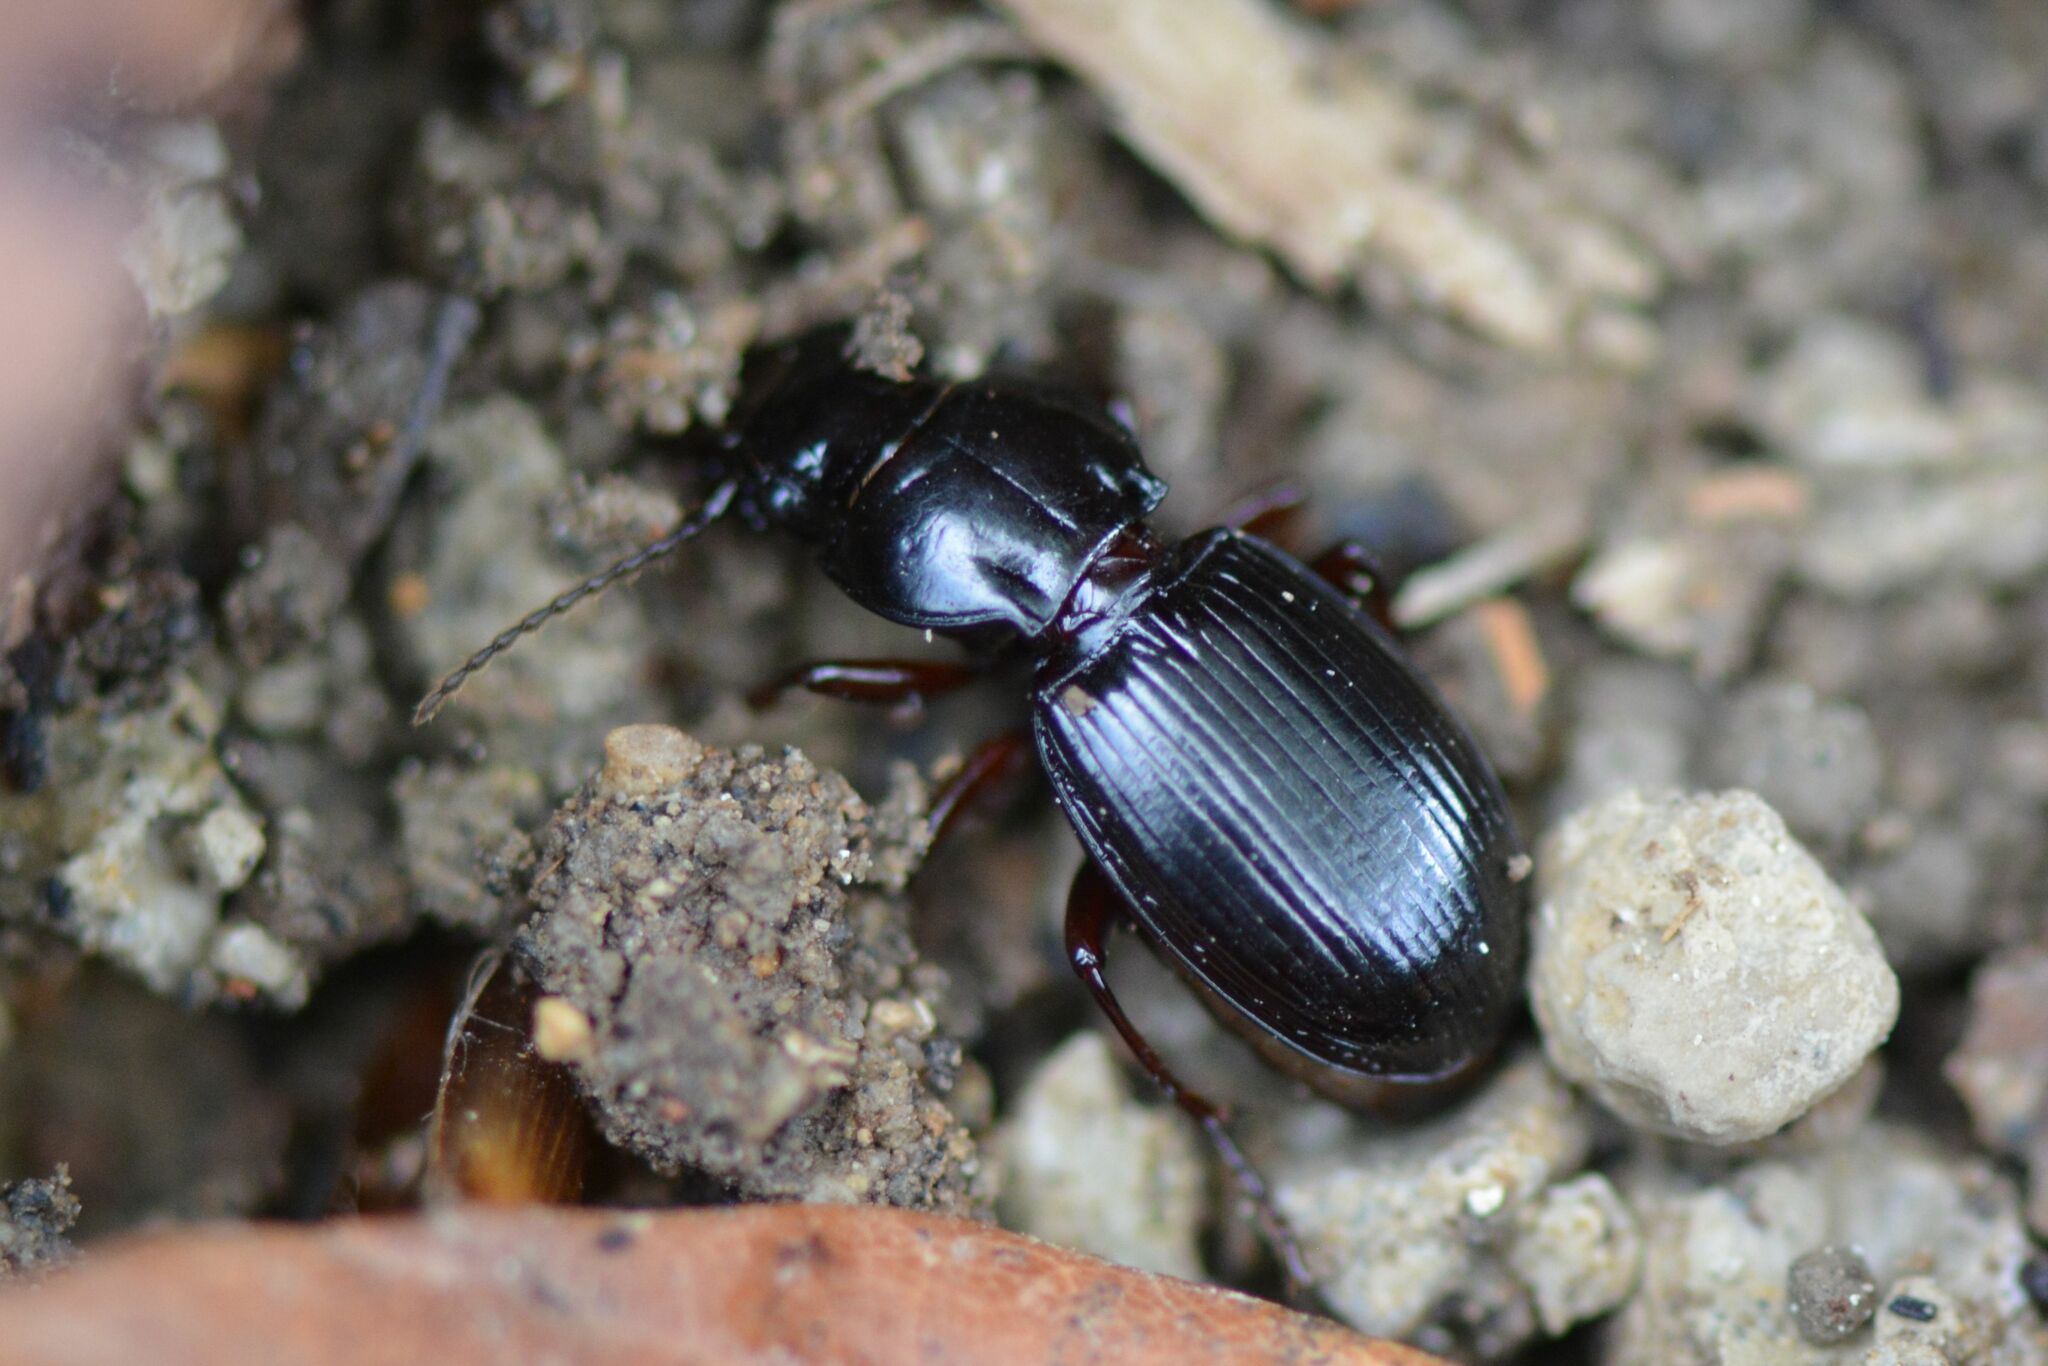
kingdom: Animalia
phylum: Arthropoda
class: Insecta
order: Coleoptera
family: Carabidae
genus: Molops
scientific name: Molops piceus
